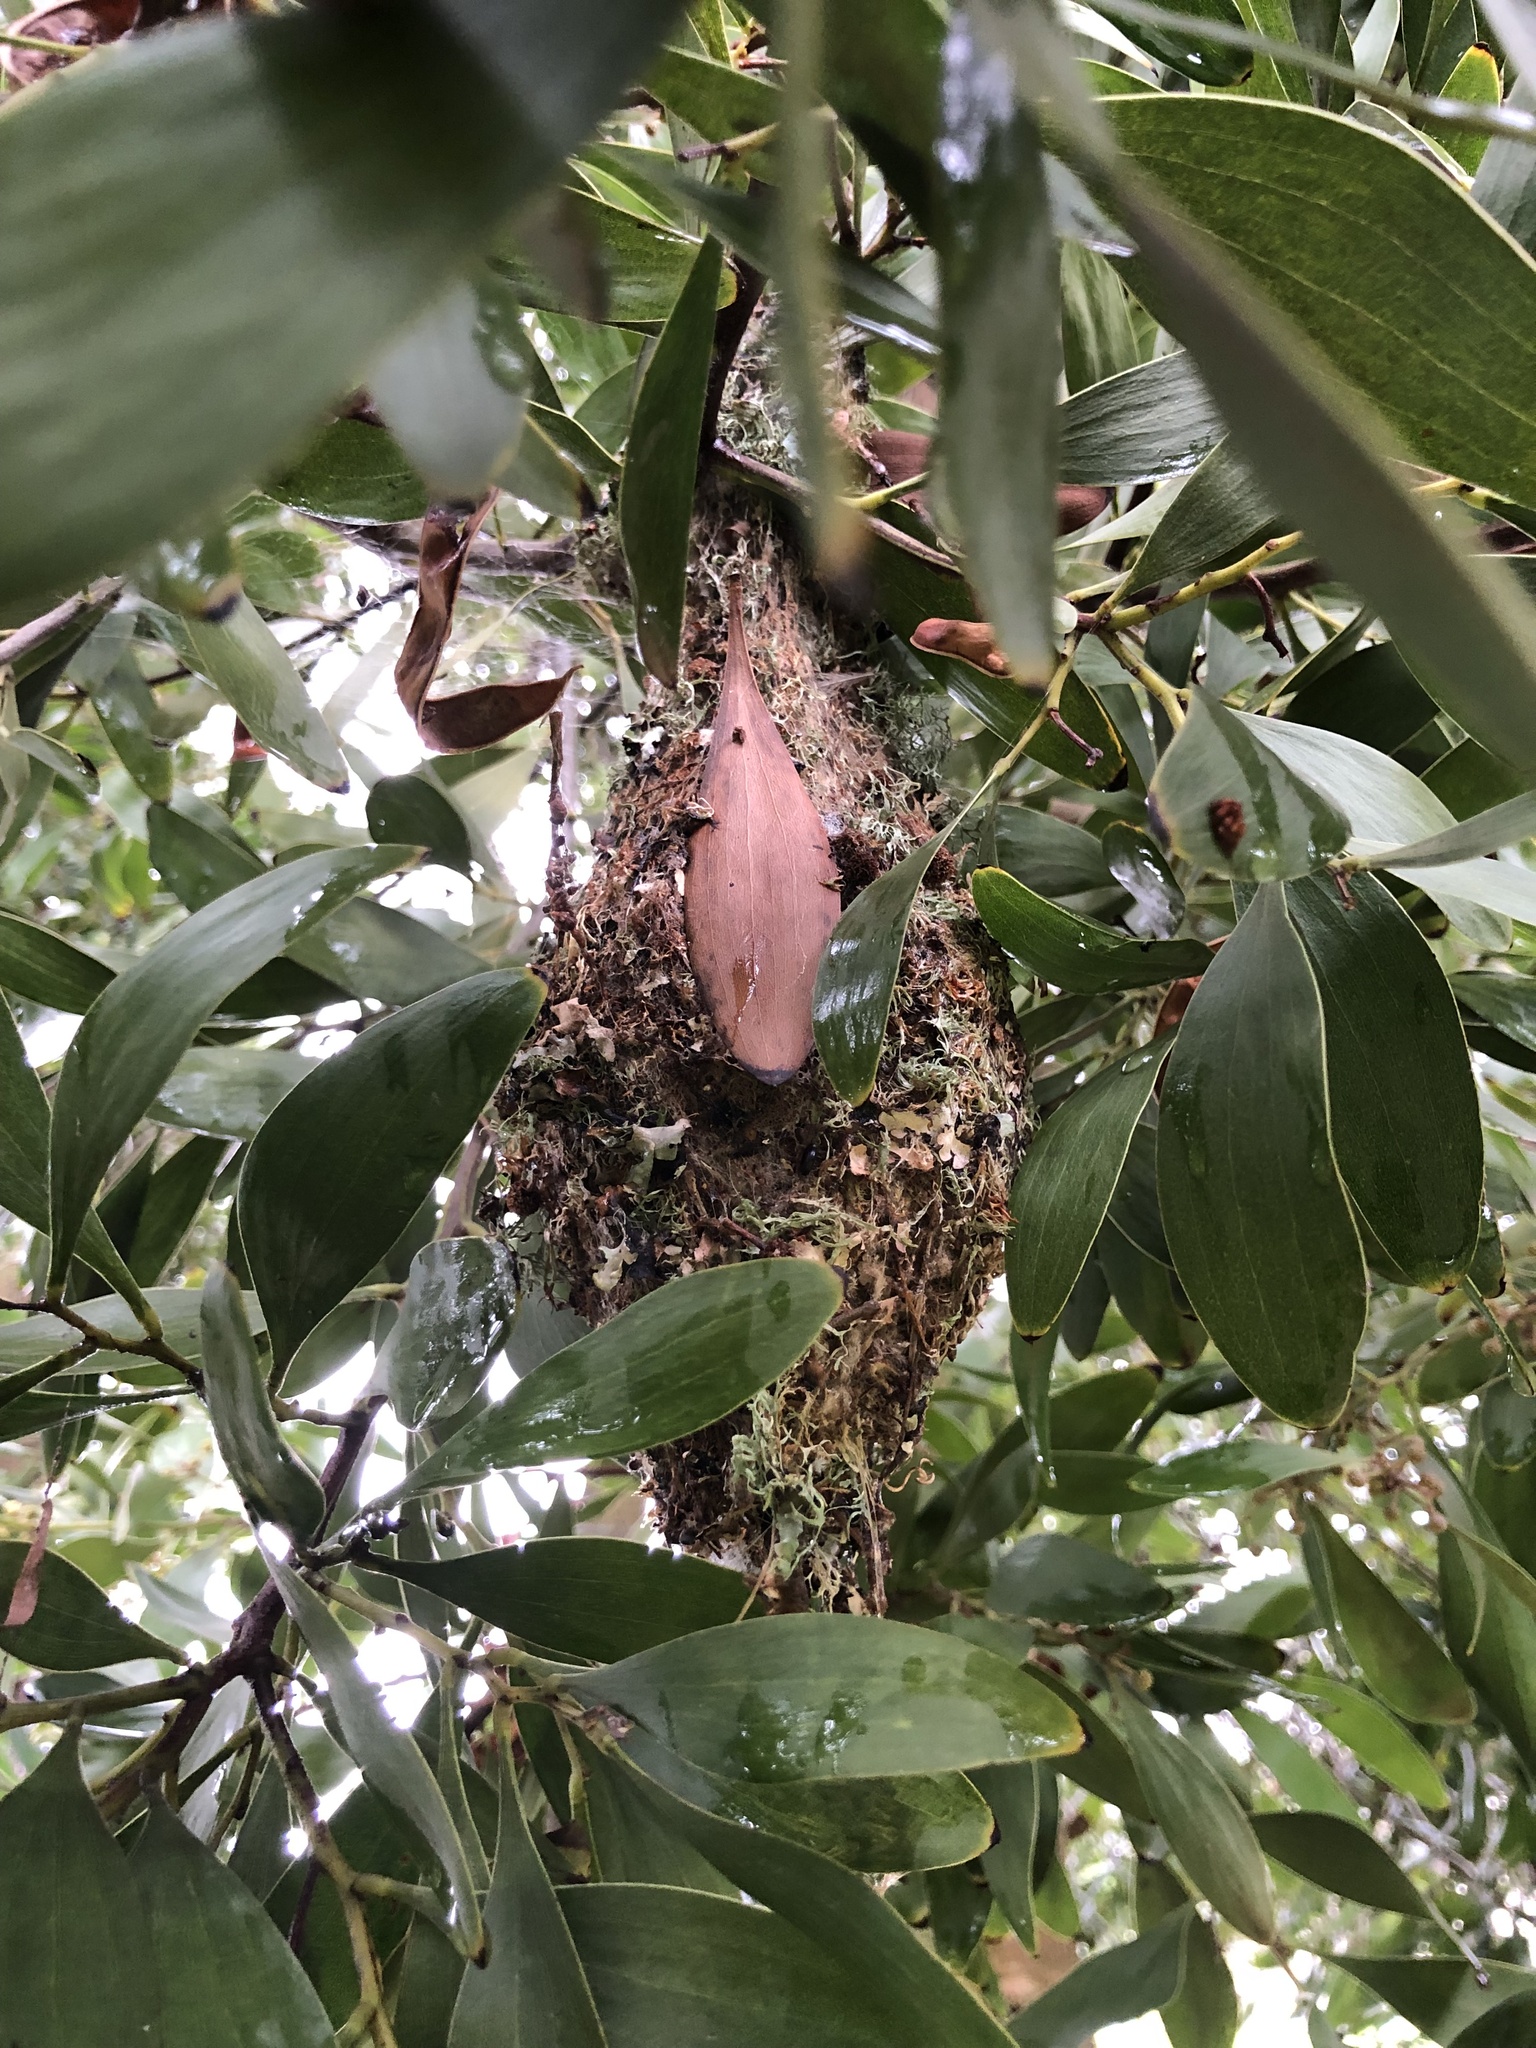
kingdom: Animalia
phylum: Chordata
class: Aves
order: Passeriformes
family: Aegithalidae
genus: Psaltriparus
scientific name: Psaltriparus minimus
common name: American bushtit
